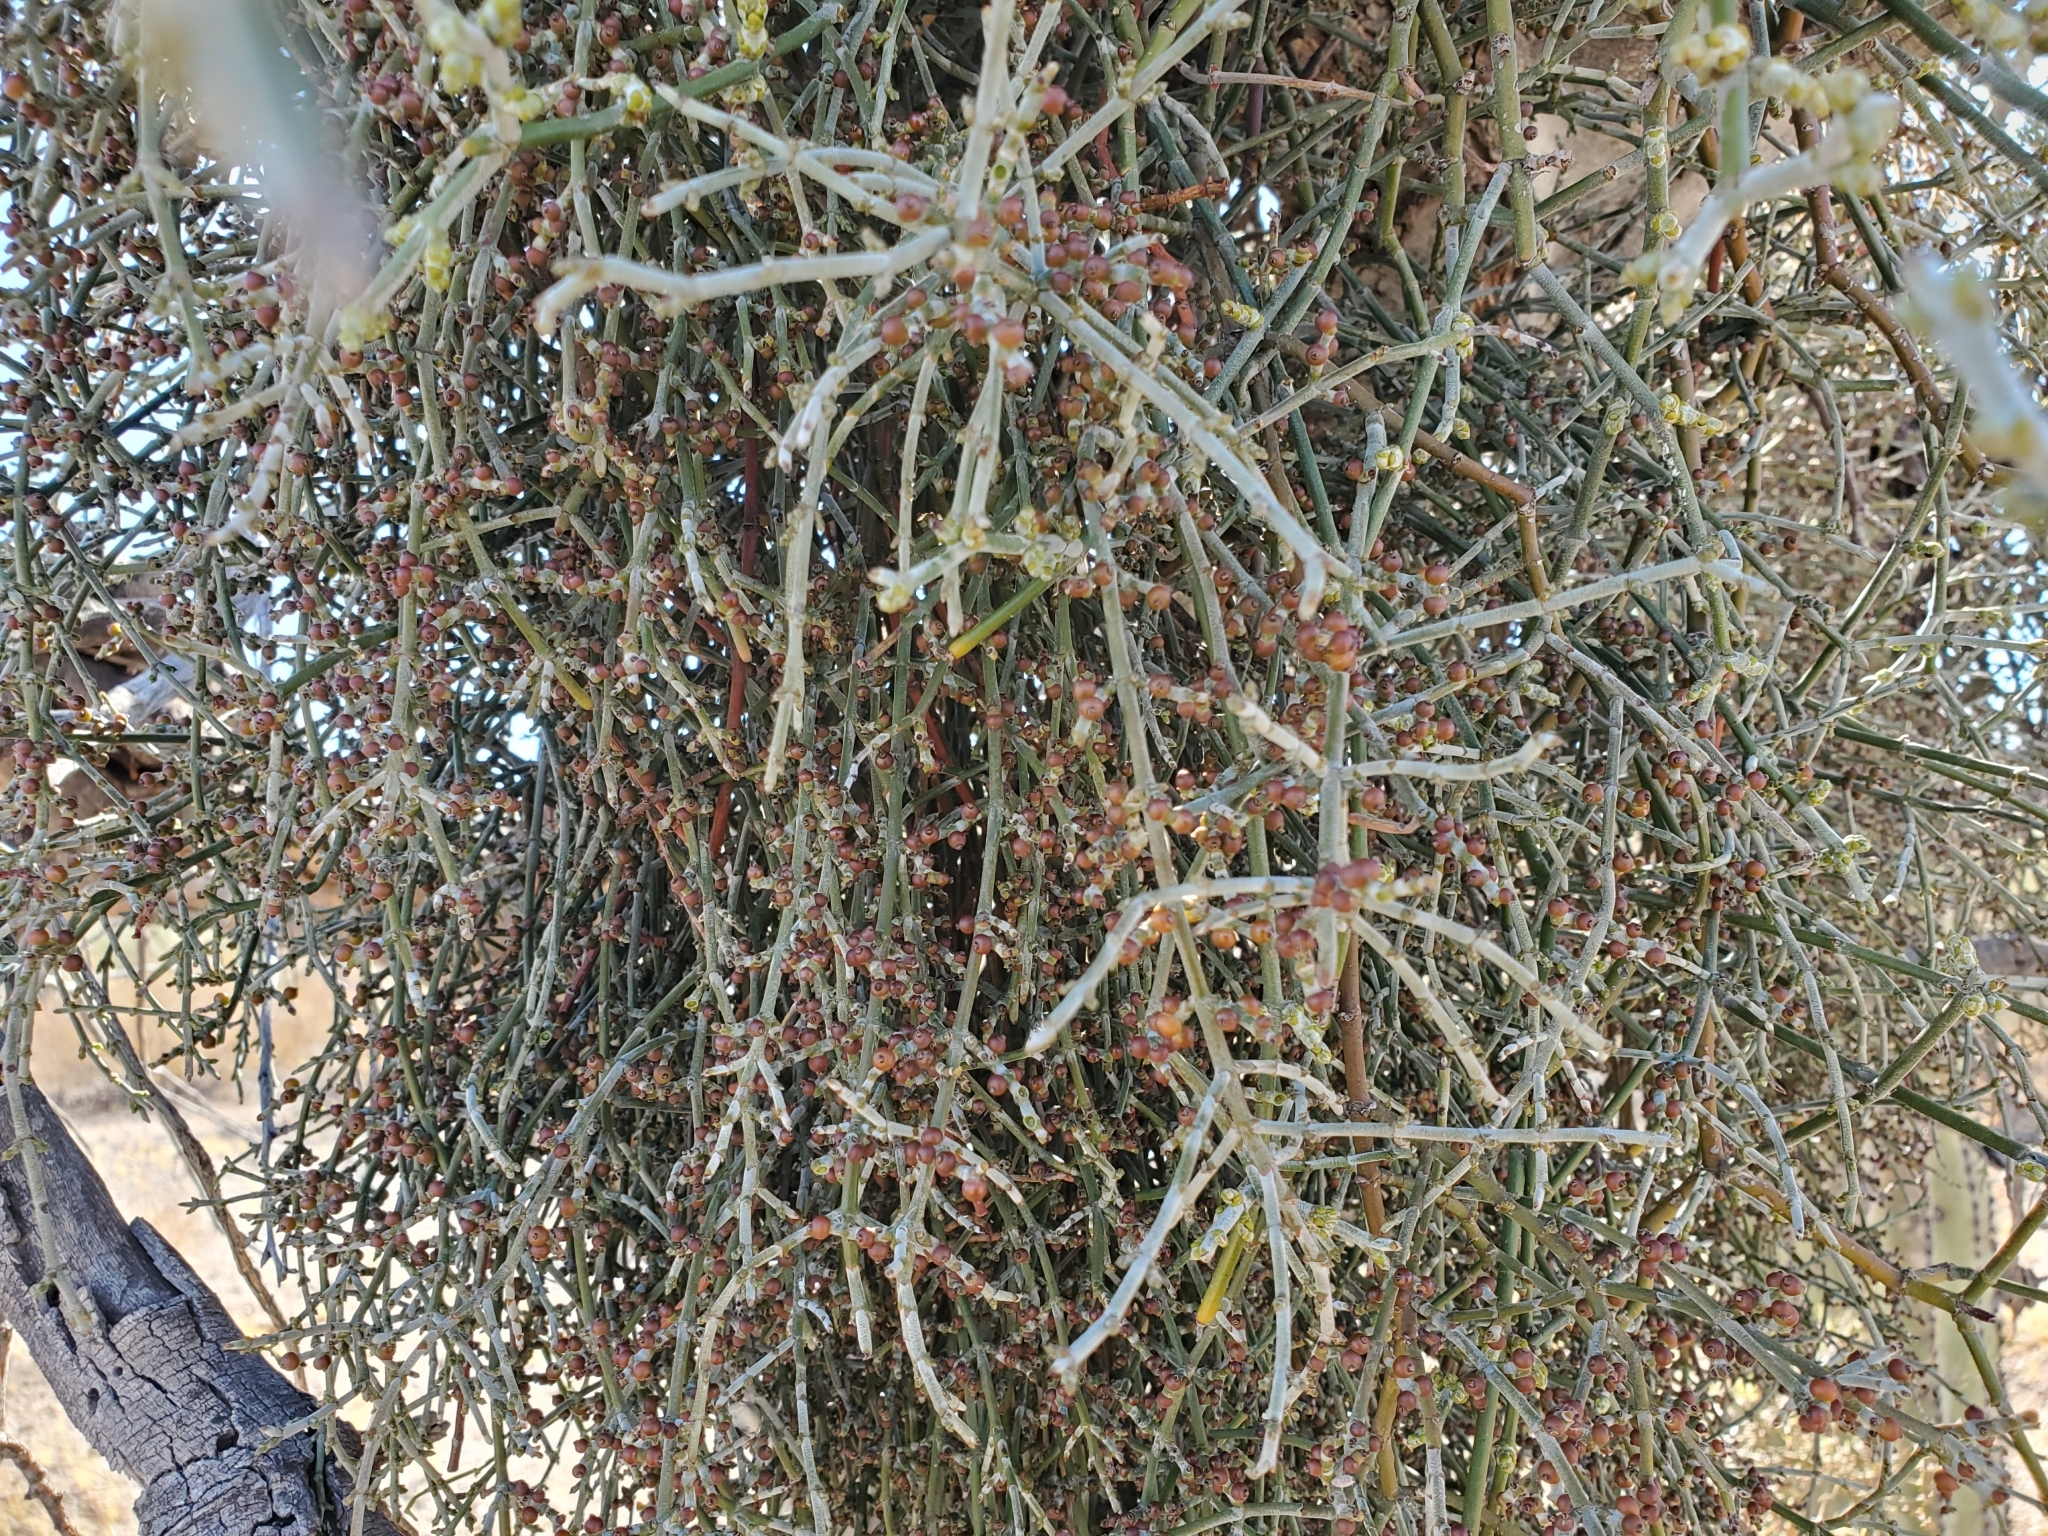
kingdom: Plantae
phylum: Tracheophyta
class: Magnoliopsida
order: Fabales
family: Fabaceae
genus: Olneya
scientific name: Olneya tesota
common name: Desert ironwood
